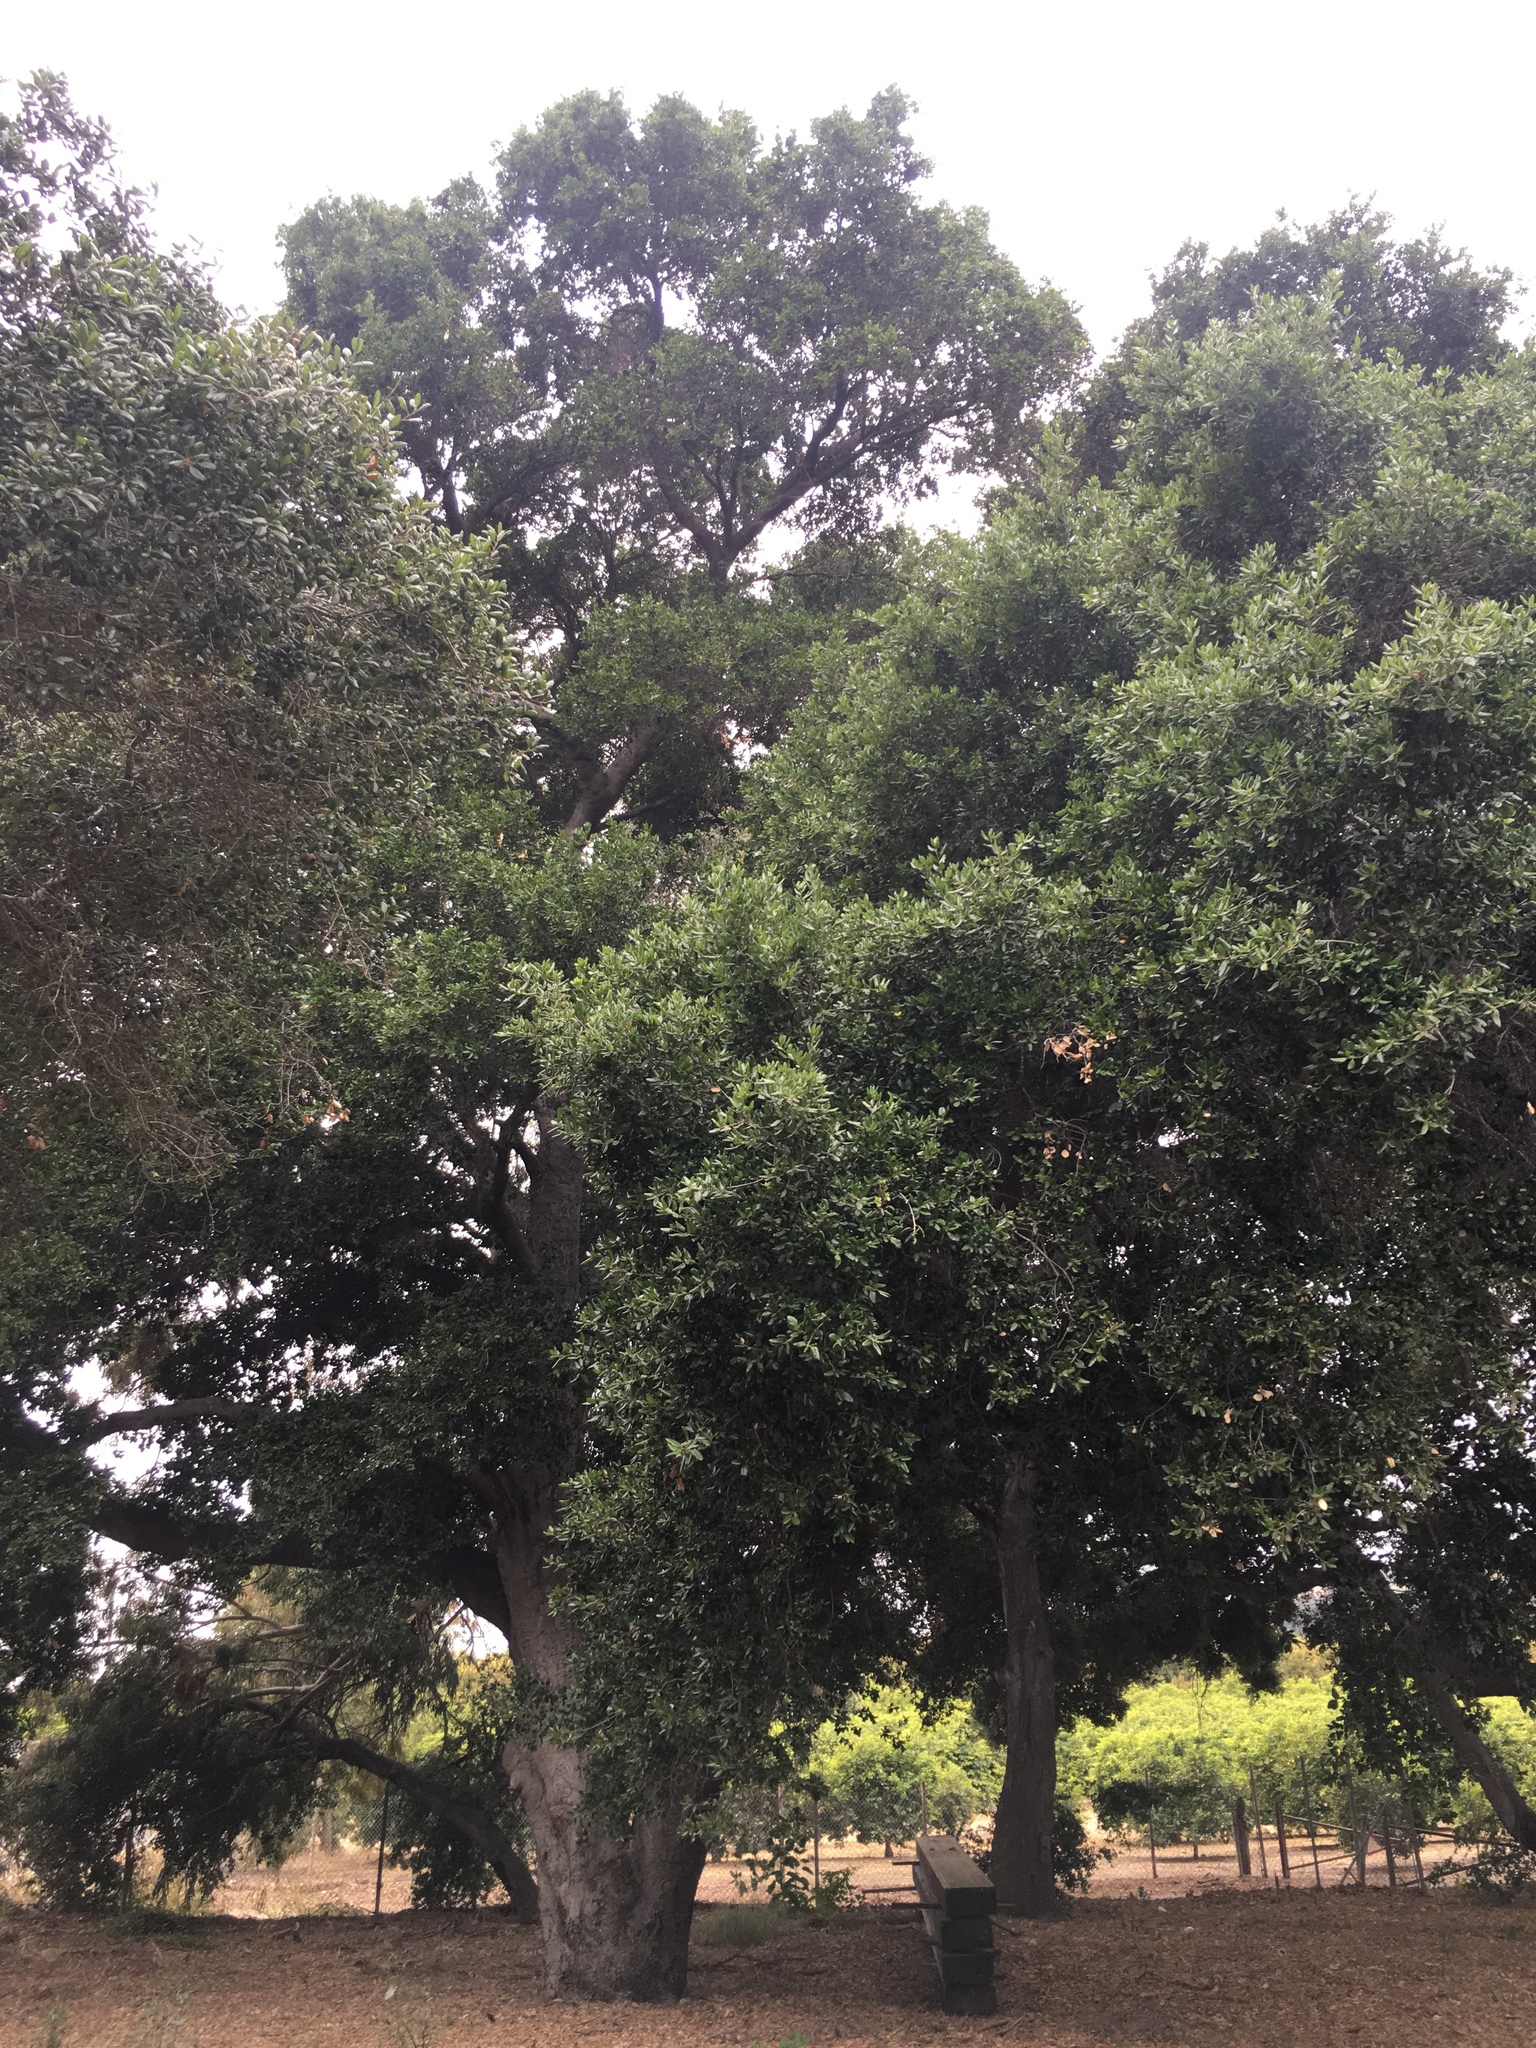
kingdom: Plantae
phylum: Tracheophyta
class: Magnoliopsida
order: Fagales
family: Fagaceae
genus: Quercus
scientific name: Quercus agrifolia
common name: California live oak
